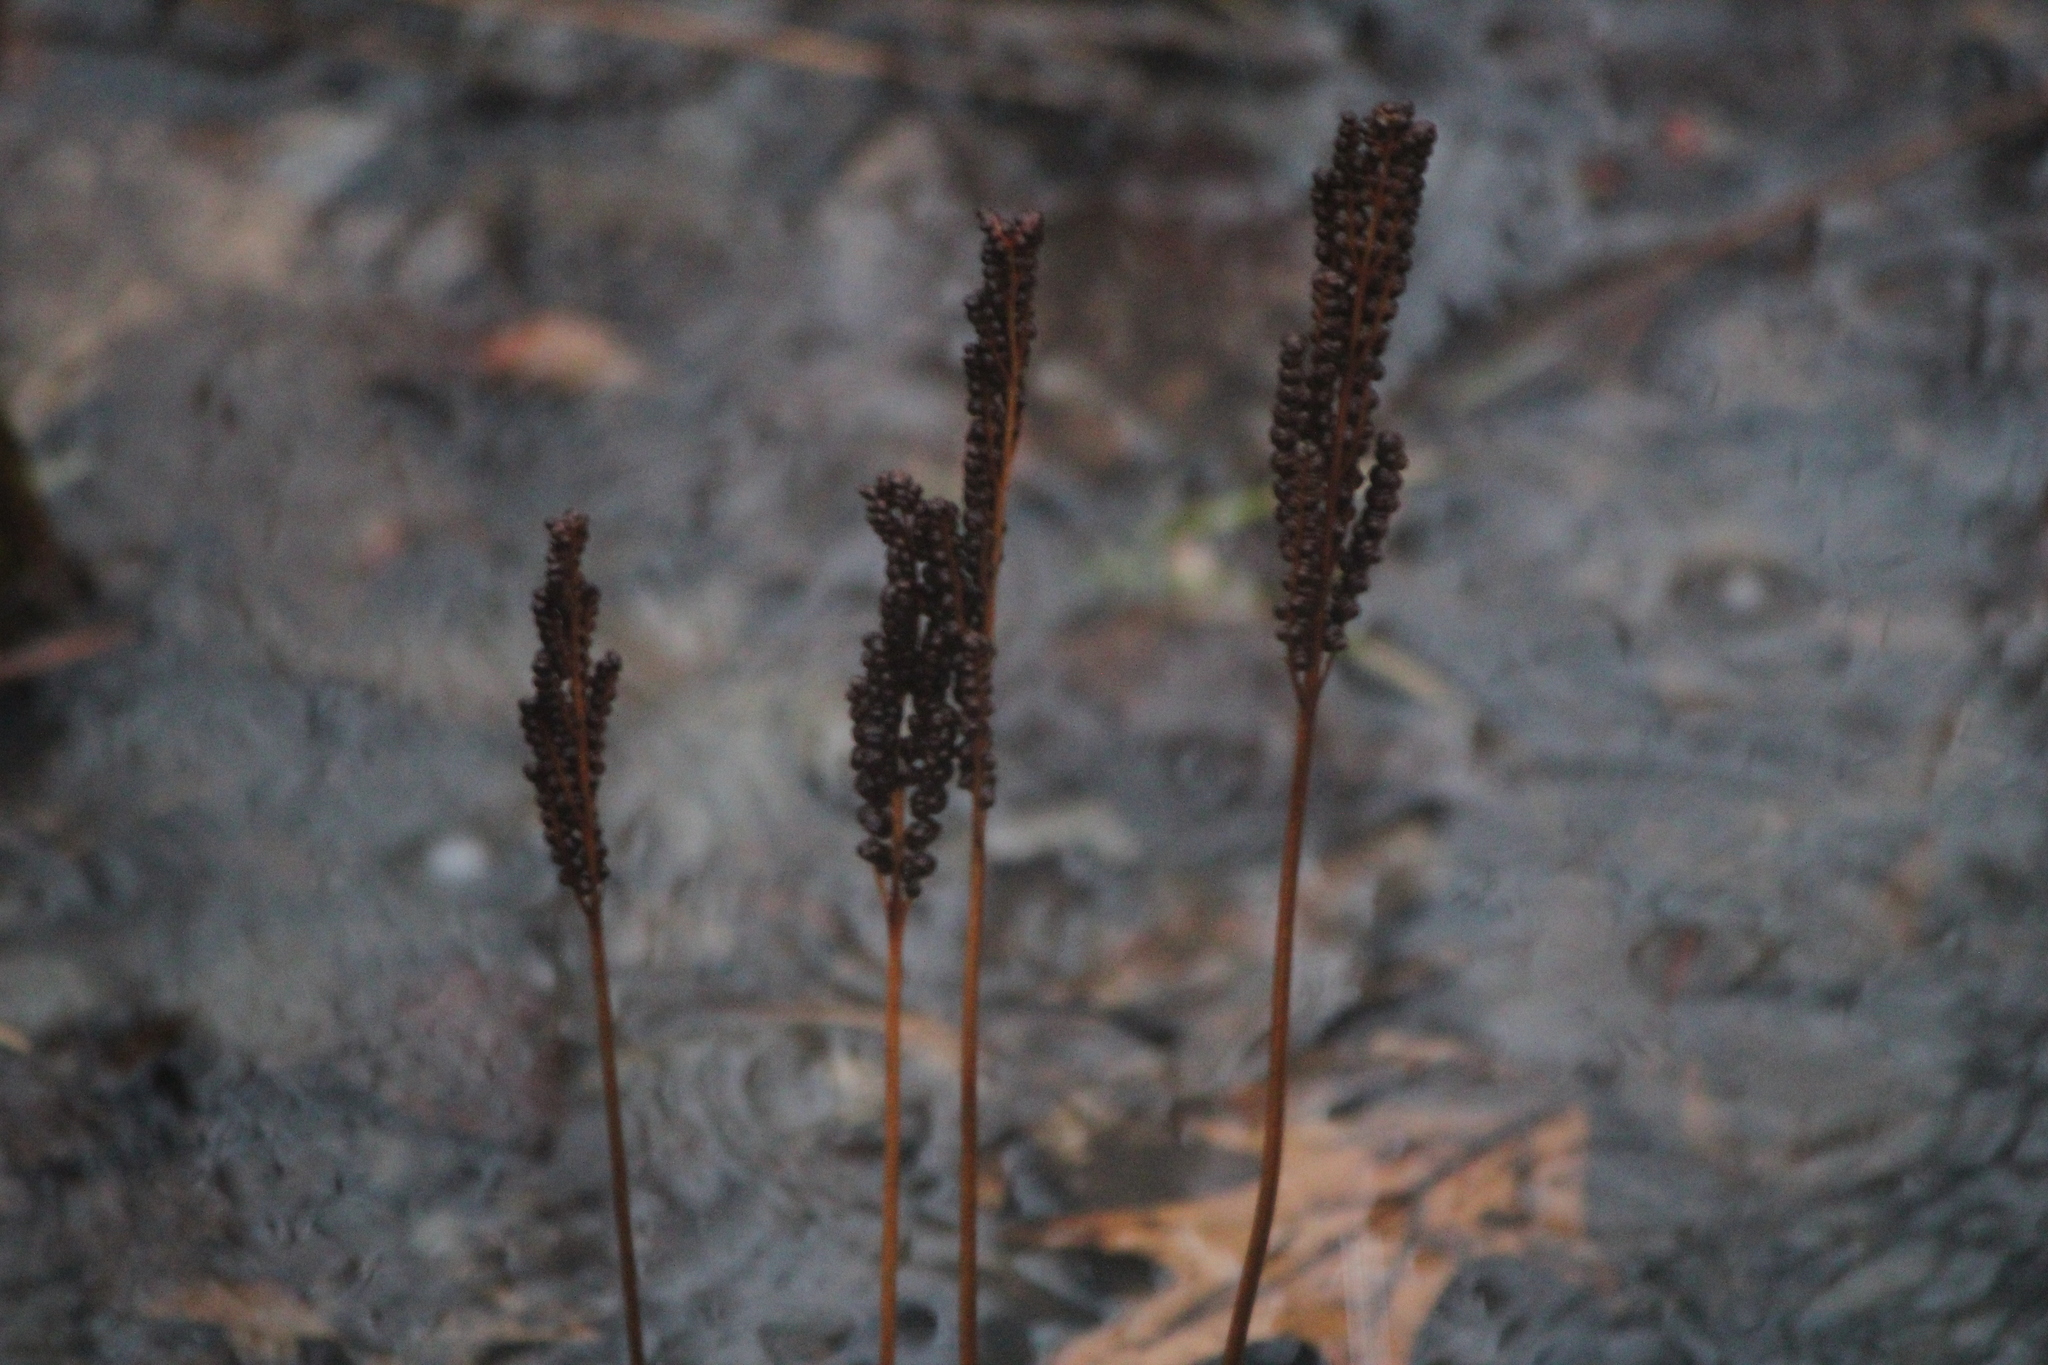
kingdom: Plantae
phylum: Tracheophyta
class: Polypodiopsida
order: Polypodiales
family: Onocleaceae
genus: Onoclea
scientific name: Onoclea sensibilis
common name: Sensitive fern
